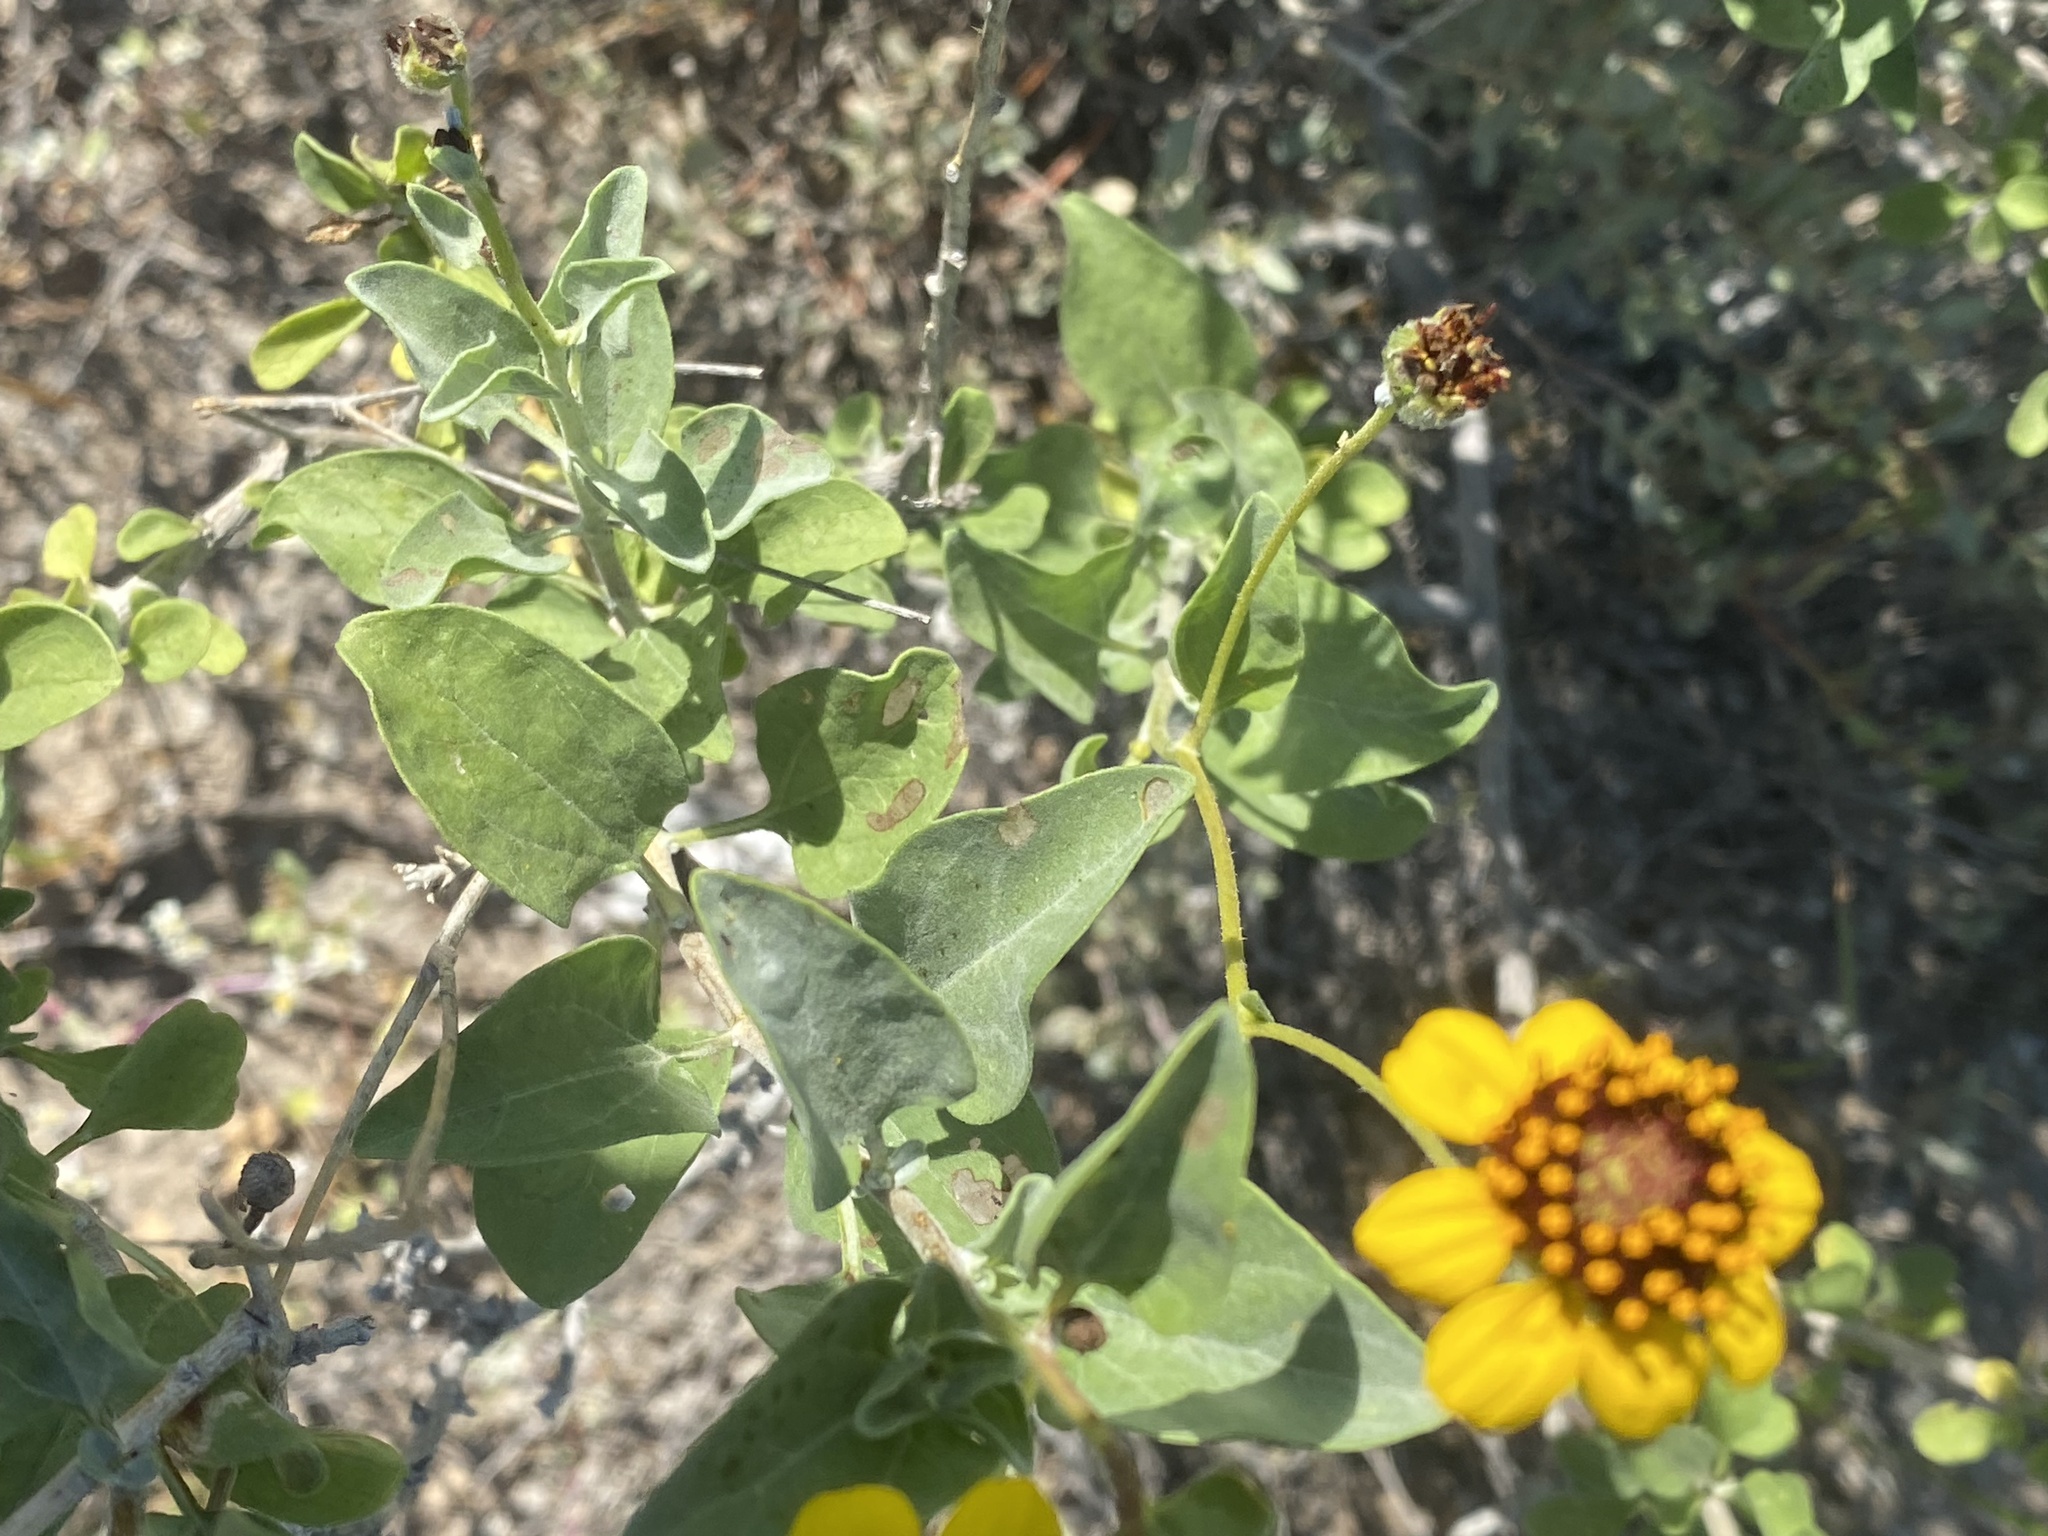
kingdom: Plantae
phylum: Tracheophyta
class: Magnoliopsida
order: Asterales
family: Asteraceae
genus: Encelia
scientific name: Encelia halimifolia
